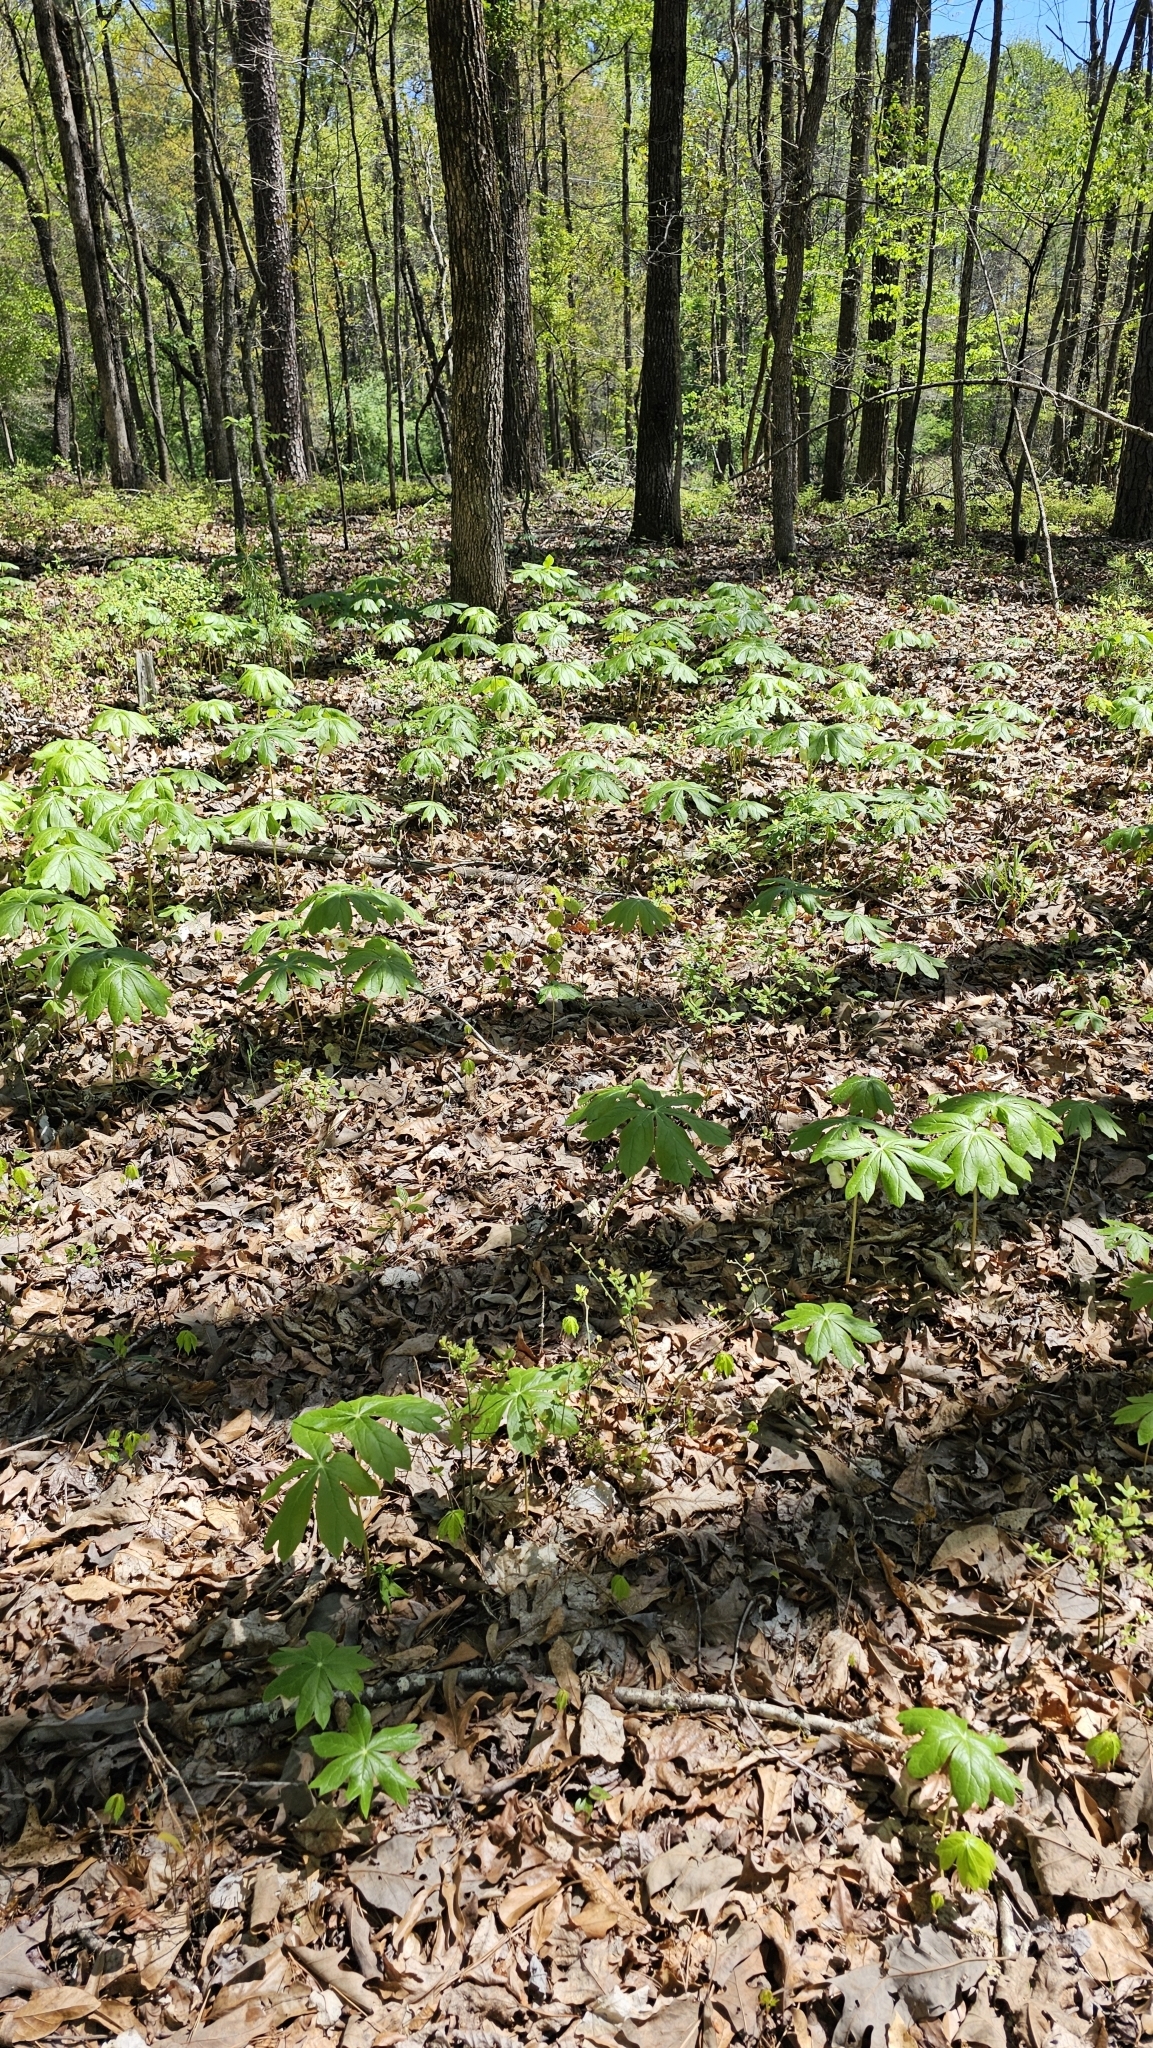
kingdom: Plantae
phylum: Tracheophyta
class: Magnoliopsida
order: Ranunculales
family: Berberidaceae
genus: Podophyllum
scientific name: Podophyllum peltatum
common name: Wild mandrake
